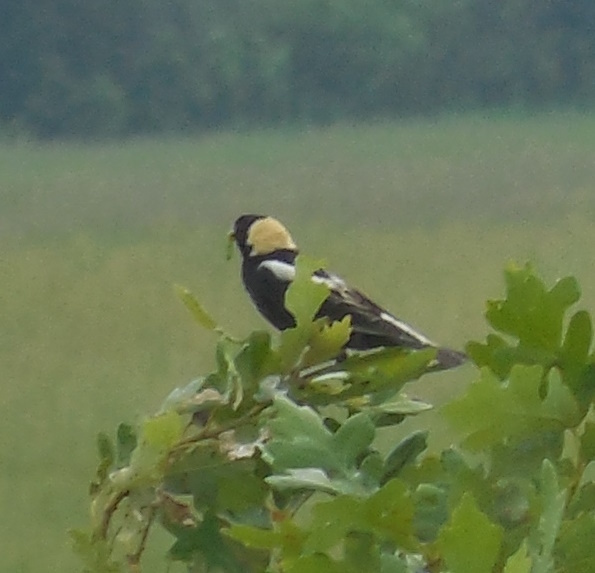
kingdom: Animalia
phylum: Chordata
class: Aves
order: Passeriformes
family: Icteridae
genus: Dolichonyx
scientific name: Dolichonyx oryzivorus
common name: Bobolink
